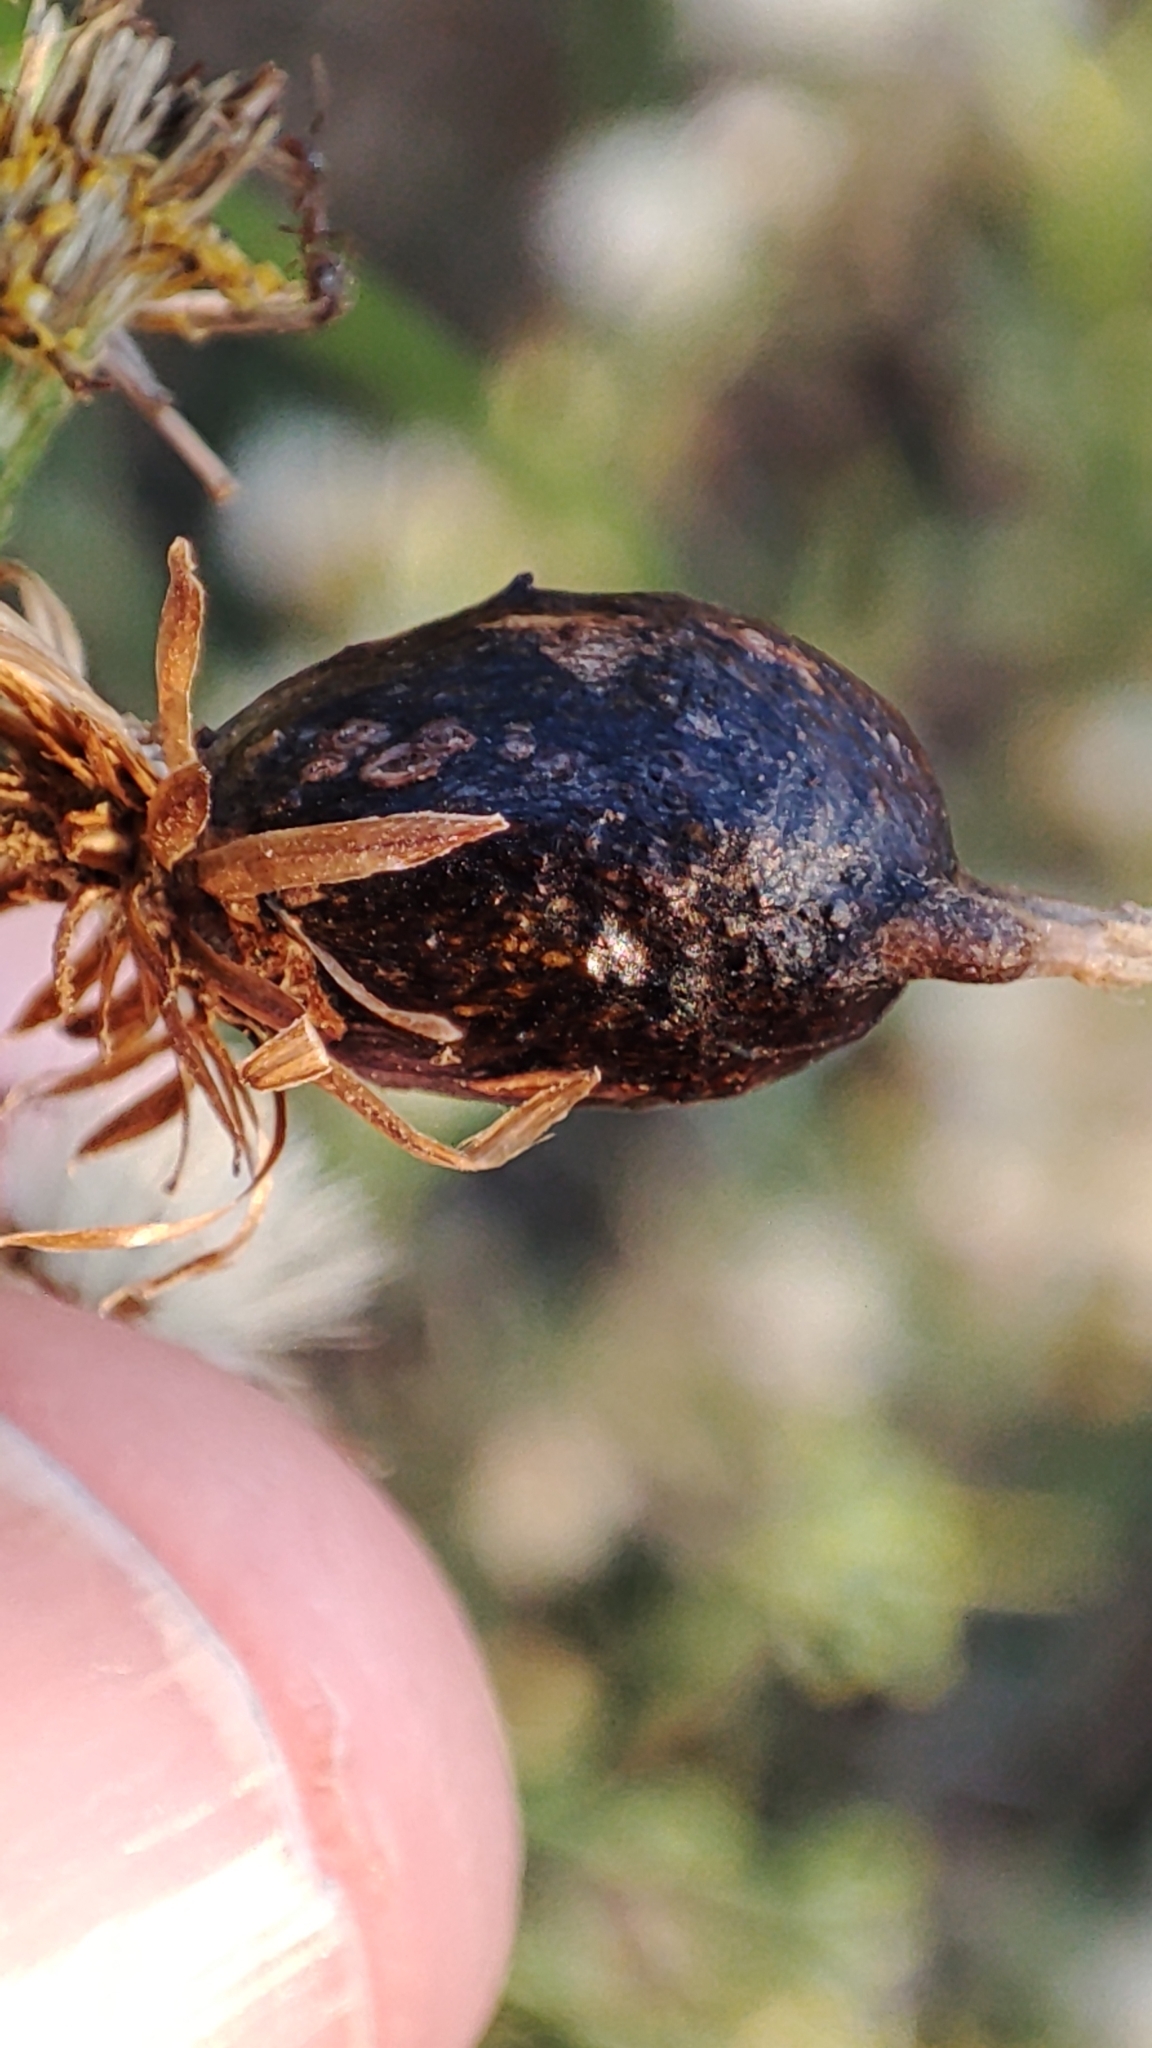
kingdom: Animalia
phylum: Arthropoda
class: Insecta
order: Diptera
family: Tephritidae
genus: Myopites
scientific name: Myopites stylatus
